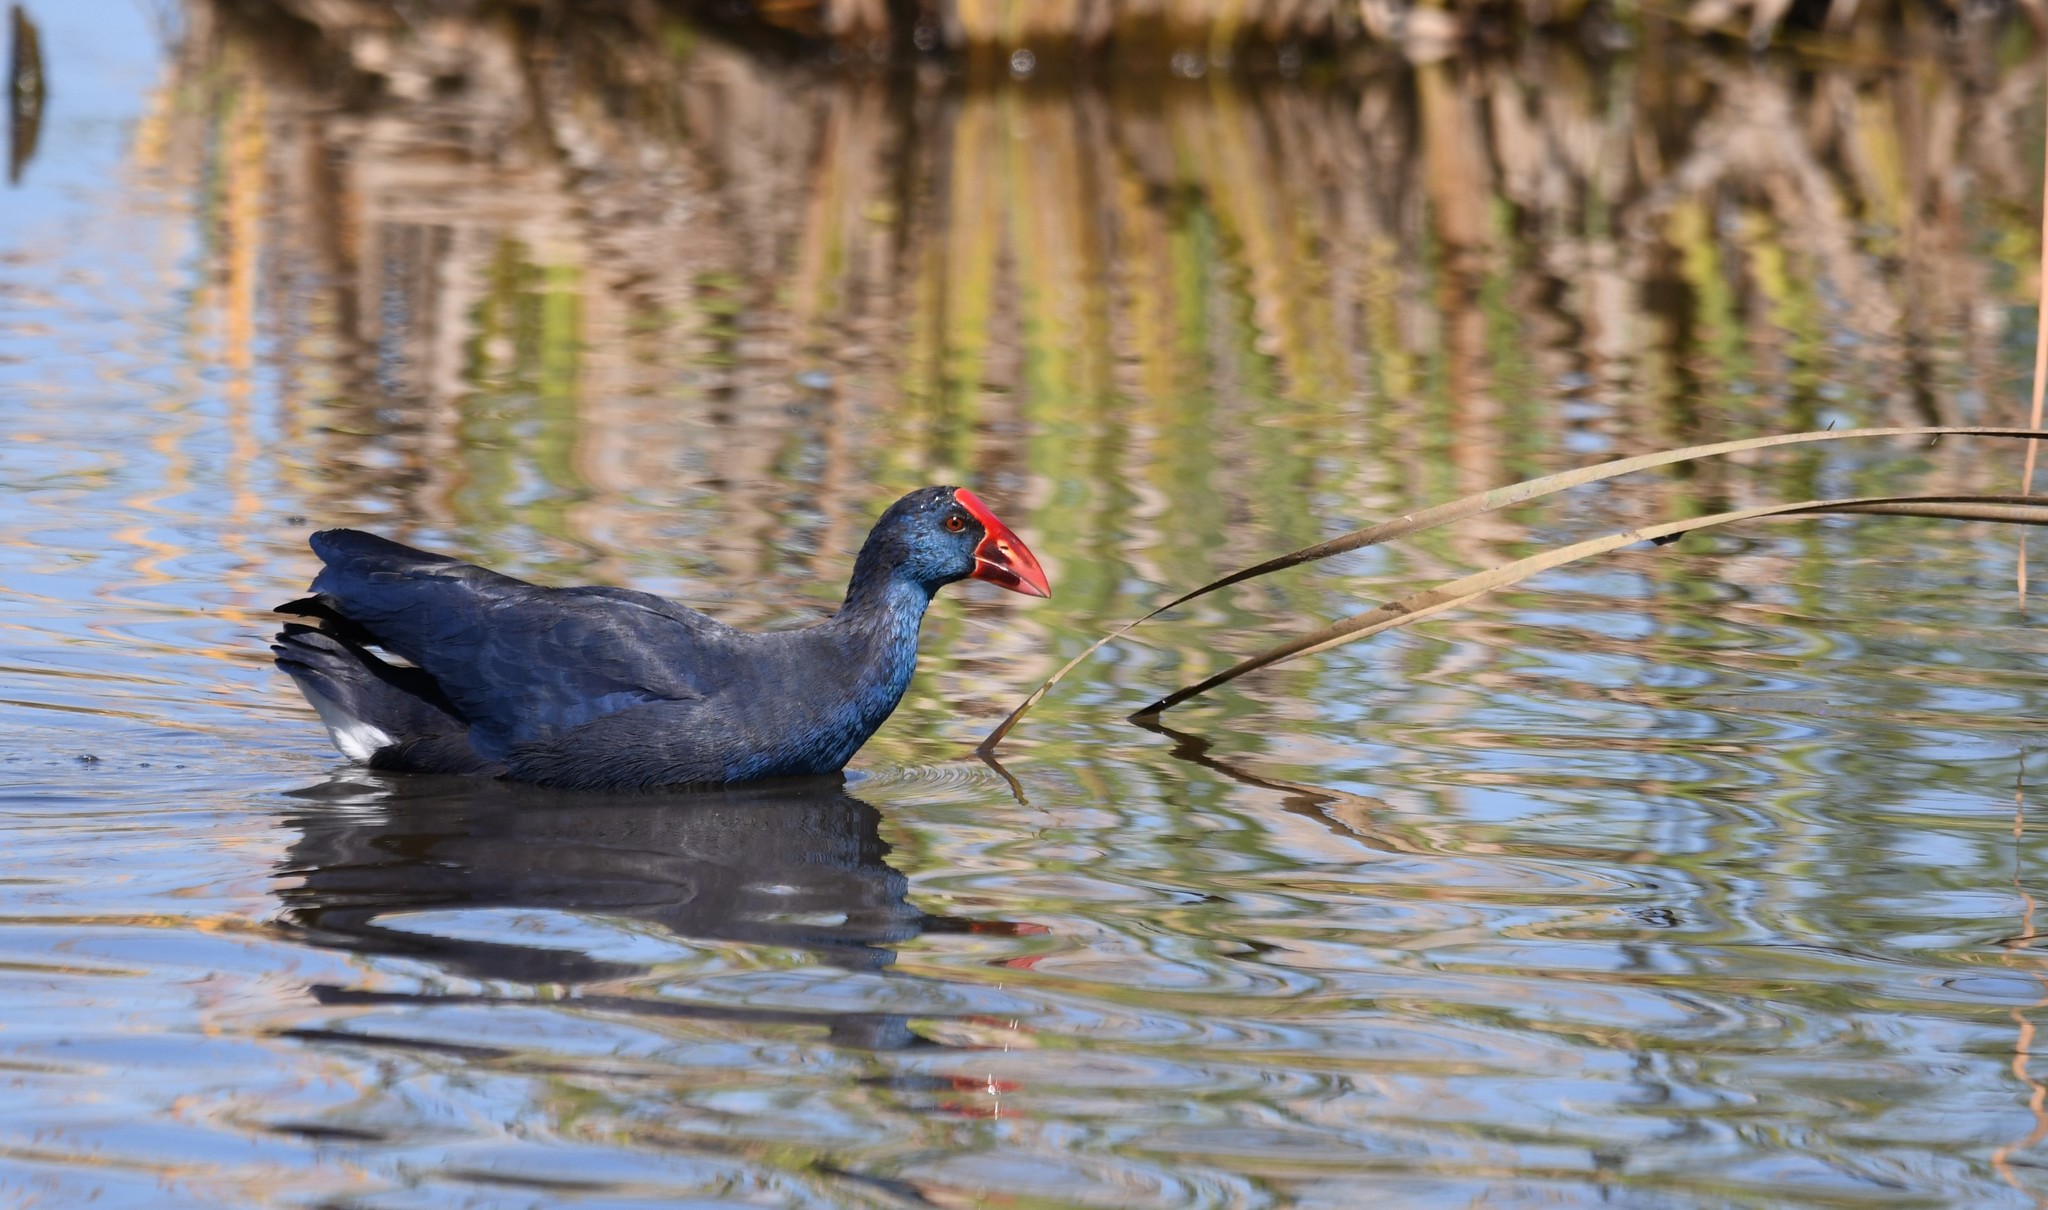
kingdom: Animalia
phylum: Chordata
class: Aves
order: Gruiformes
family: Rallidae
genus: Porphyrio
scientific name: Porphyrio porphyrio
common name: Purple swamphen
